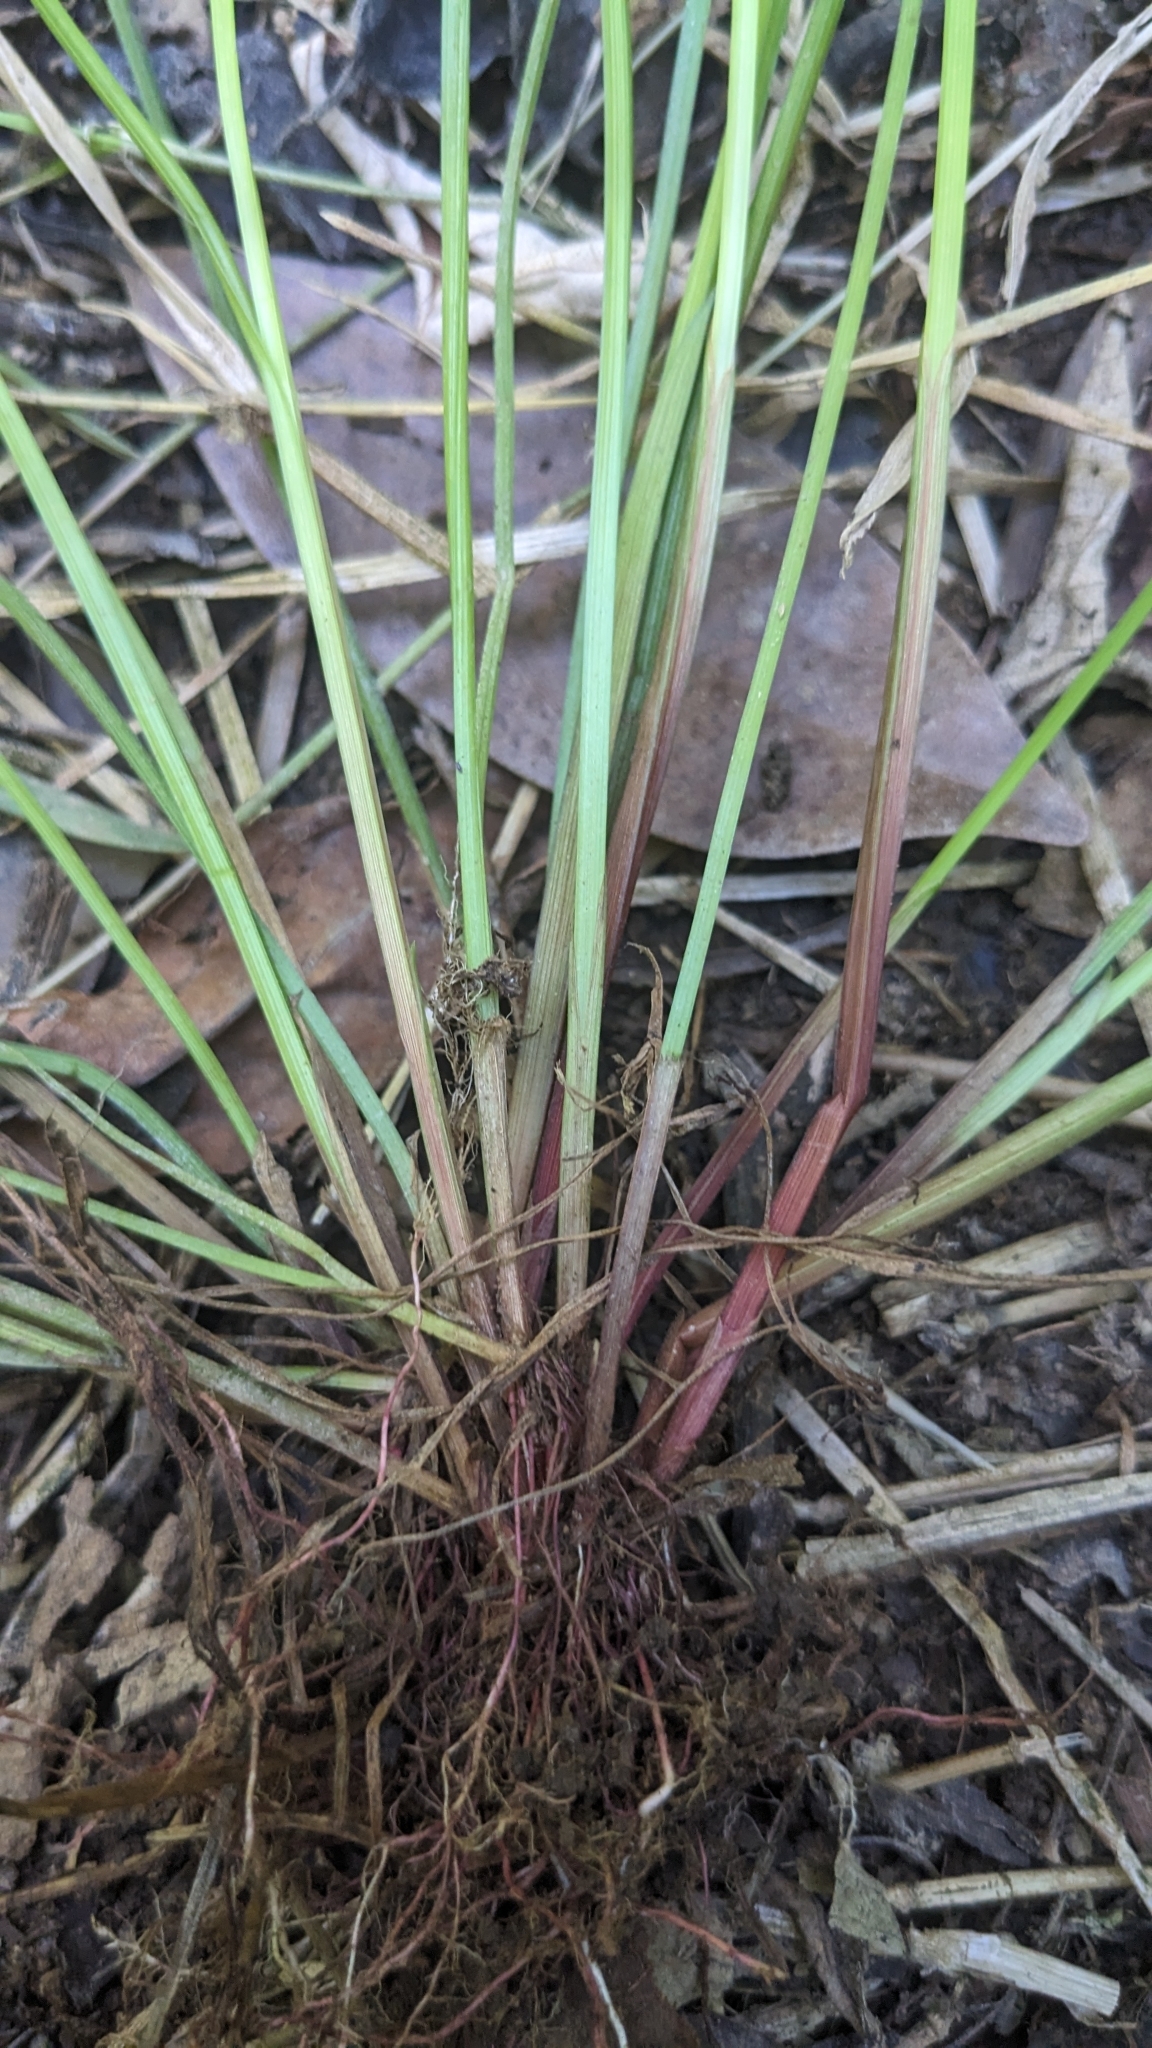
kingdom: Plantae
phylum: Tracheophyta
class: Liliopsida
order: Poales
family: Cyperaceae
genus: Cyperus
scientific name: Cyperus haspan
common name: Haspan flatsedge
